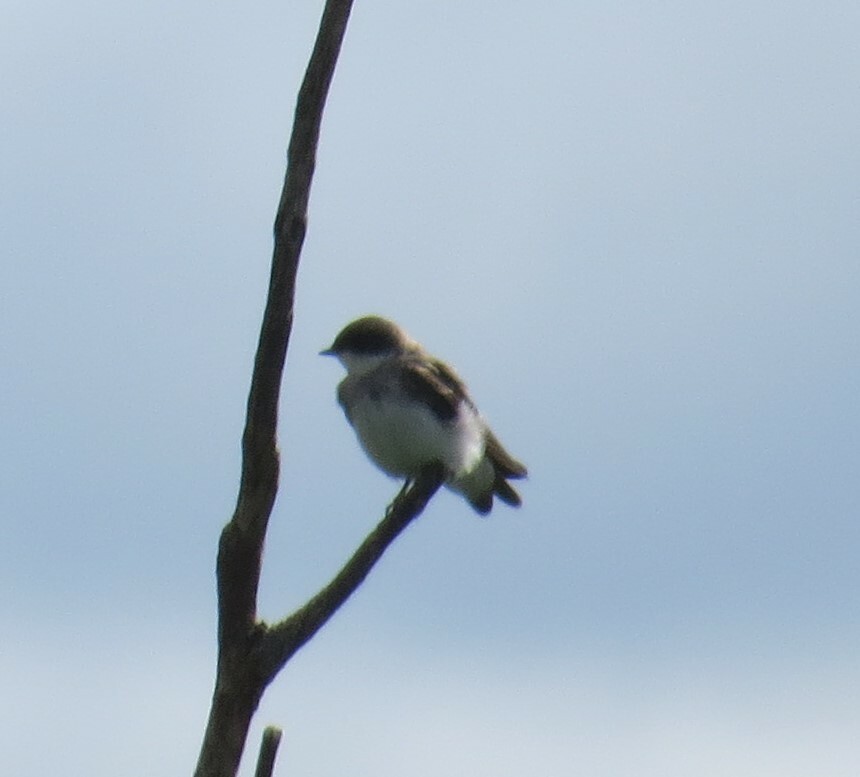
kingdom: Animalia
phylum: Chordata
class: Aves
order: Passeriformes
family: Hirundinidae
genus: Tachycineta
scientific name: Tachycineta bicolor
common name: Tree swallow
